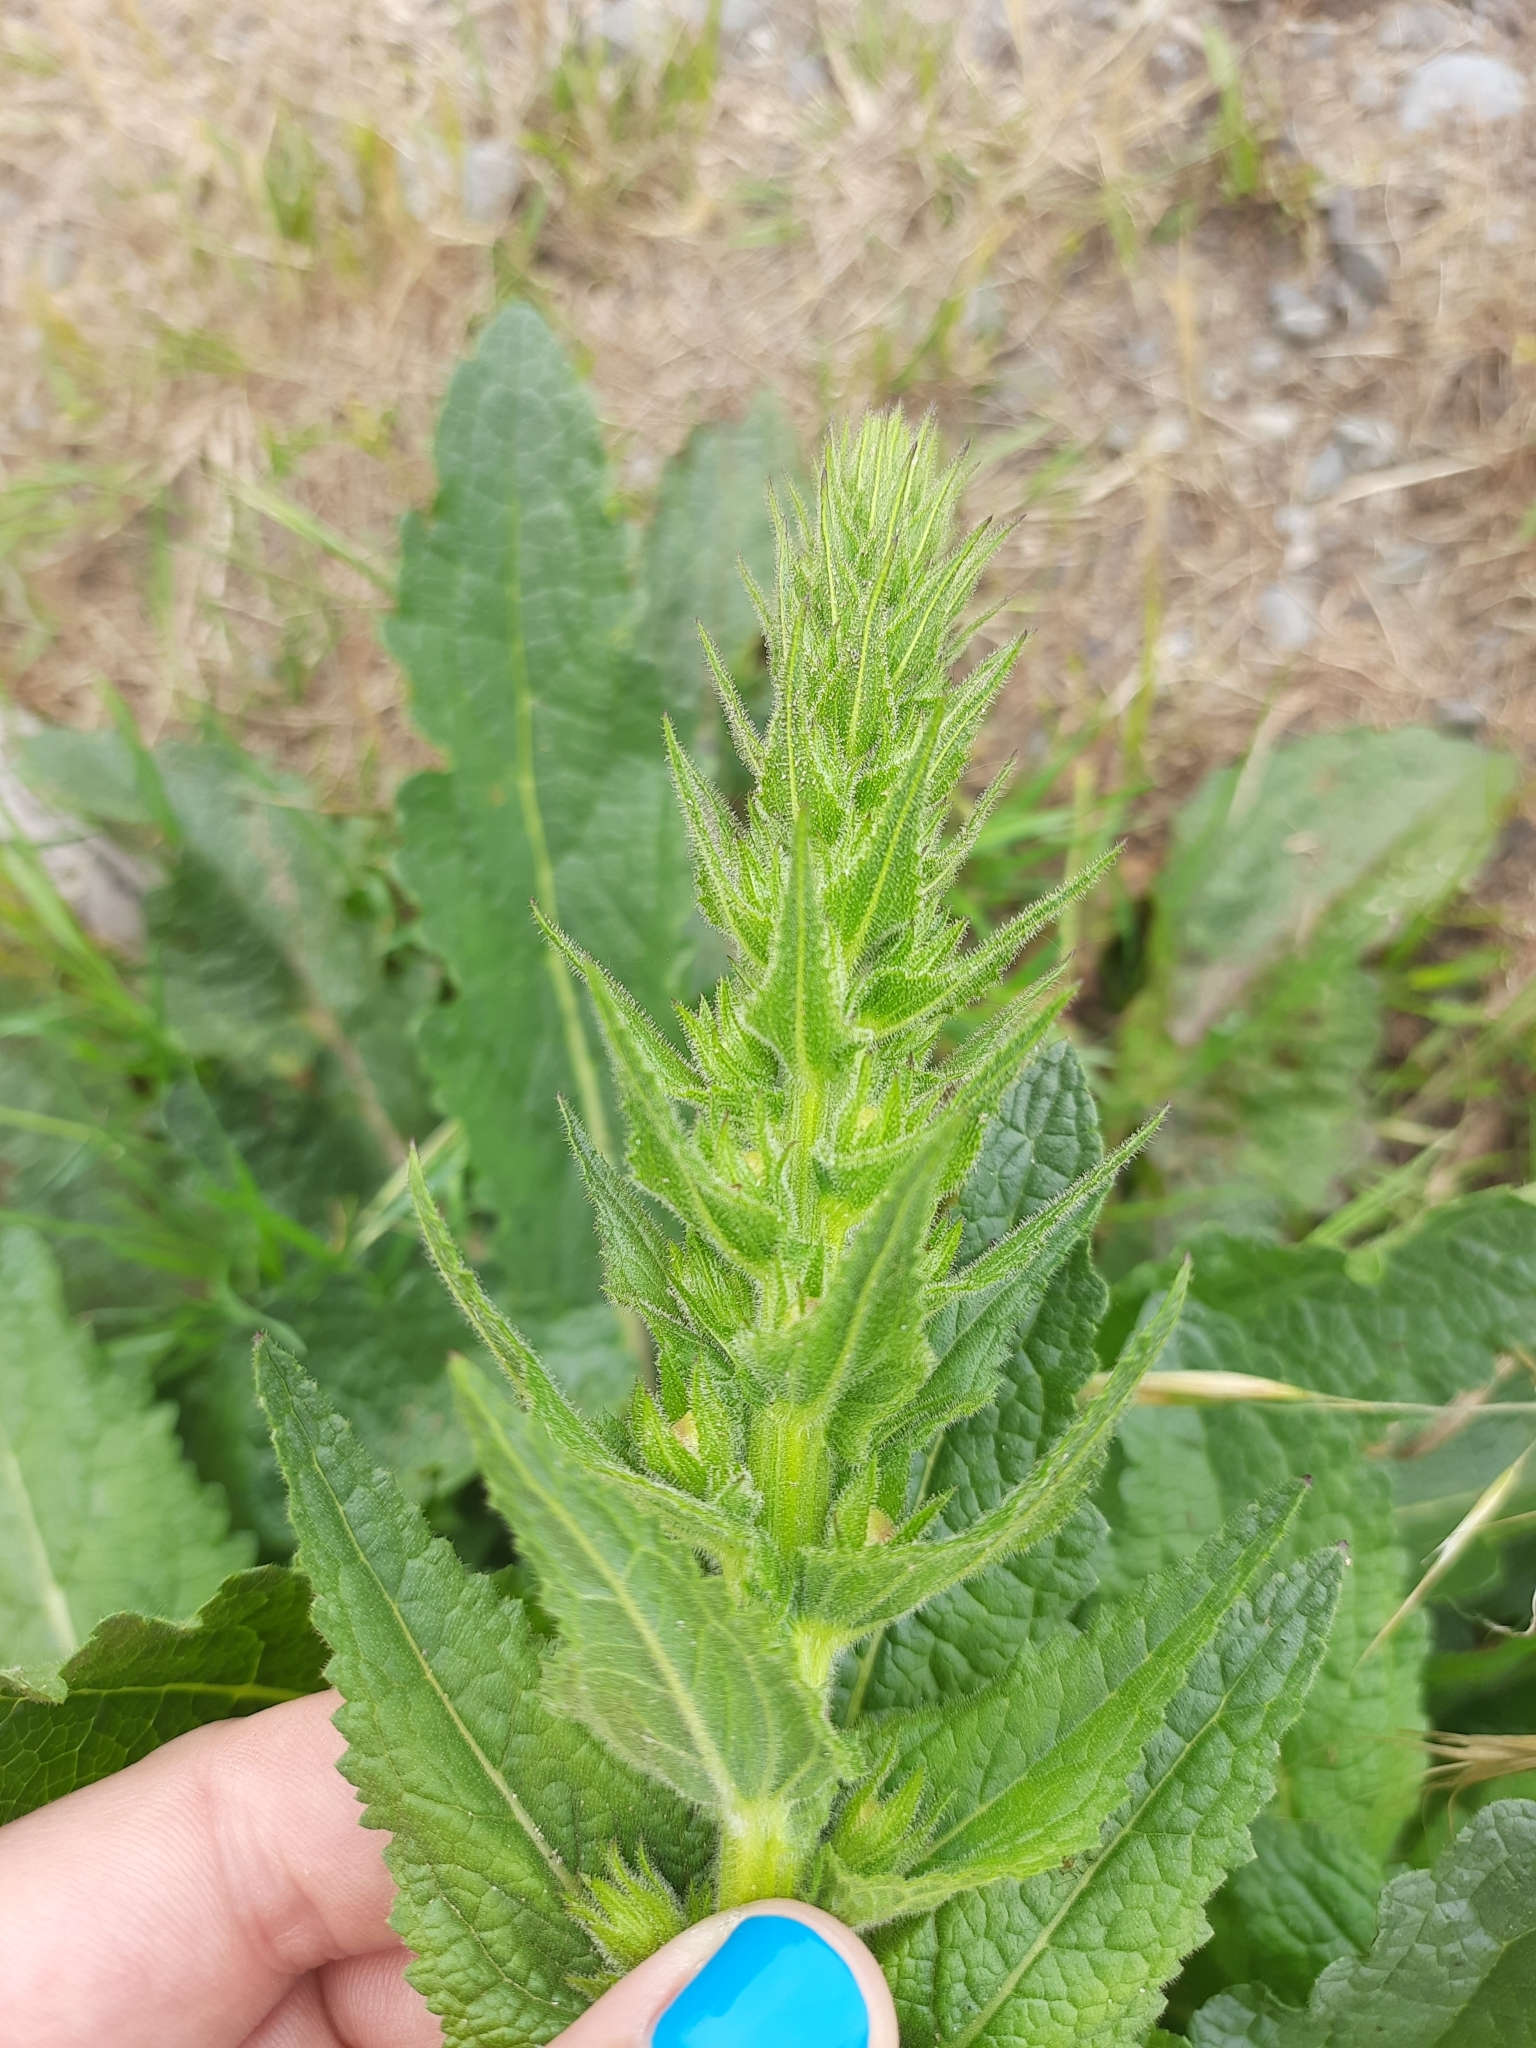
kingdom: Plantae
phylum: Tracheophyta
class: Magnoliopsida
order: Lamiales
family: Scrophulariaceae
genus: Verbascum
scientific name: Verbascum virgatum
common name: Twiggy mullein
